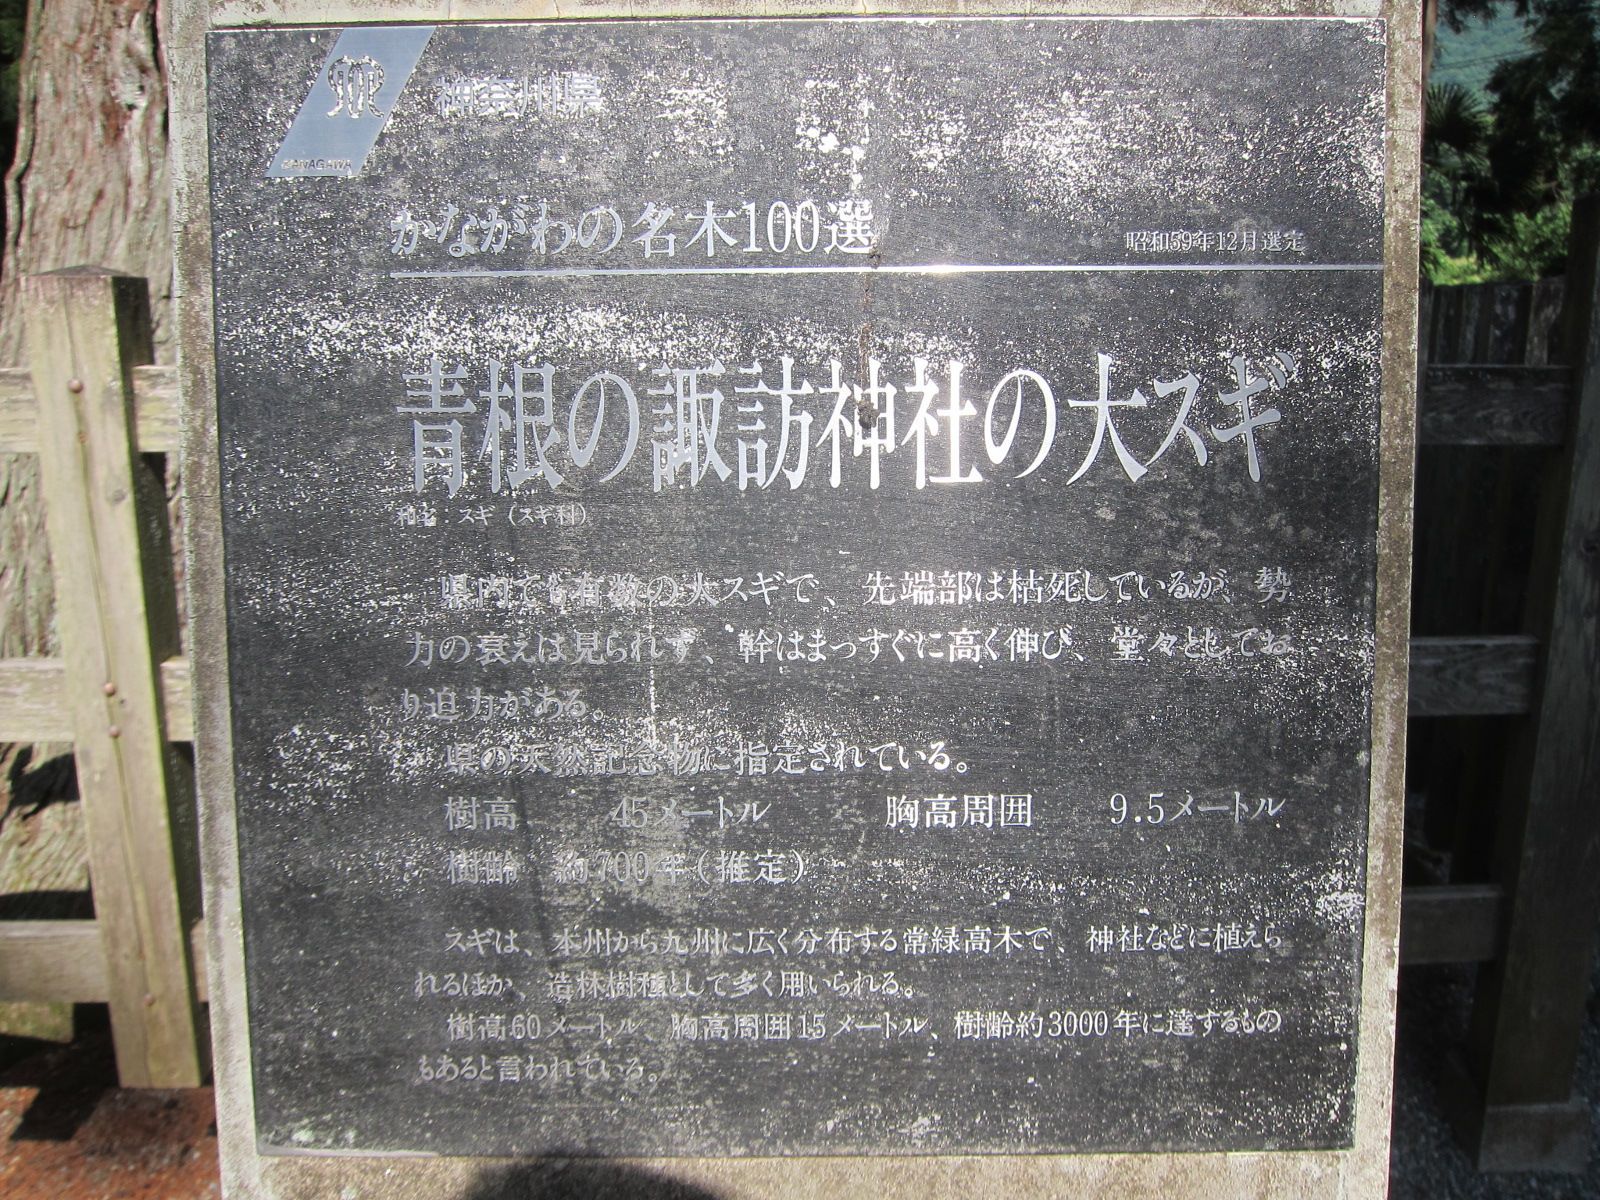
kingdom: Plantae
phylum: Tracheophyta
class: Pinopsida
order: Pinales
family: Cupressaceae
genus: Cryptomeria
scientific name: Cryptomeria japonica
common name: Japanese cedar
